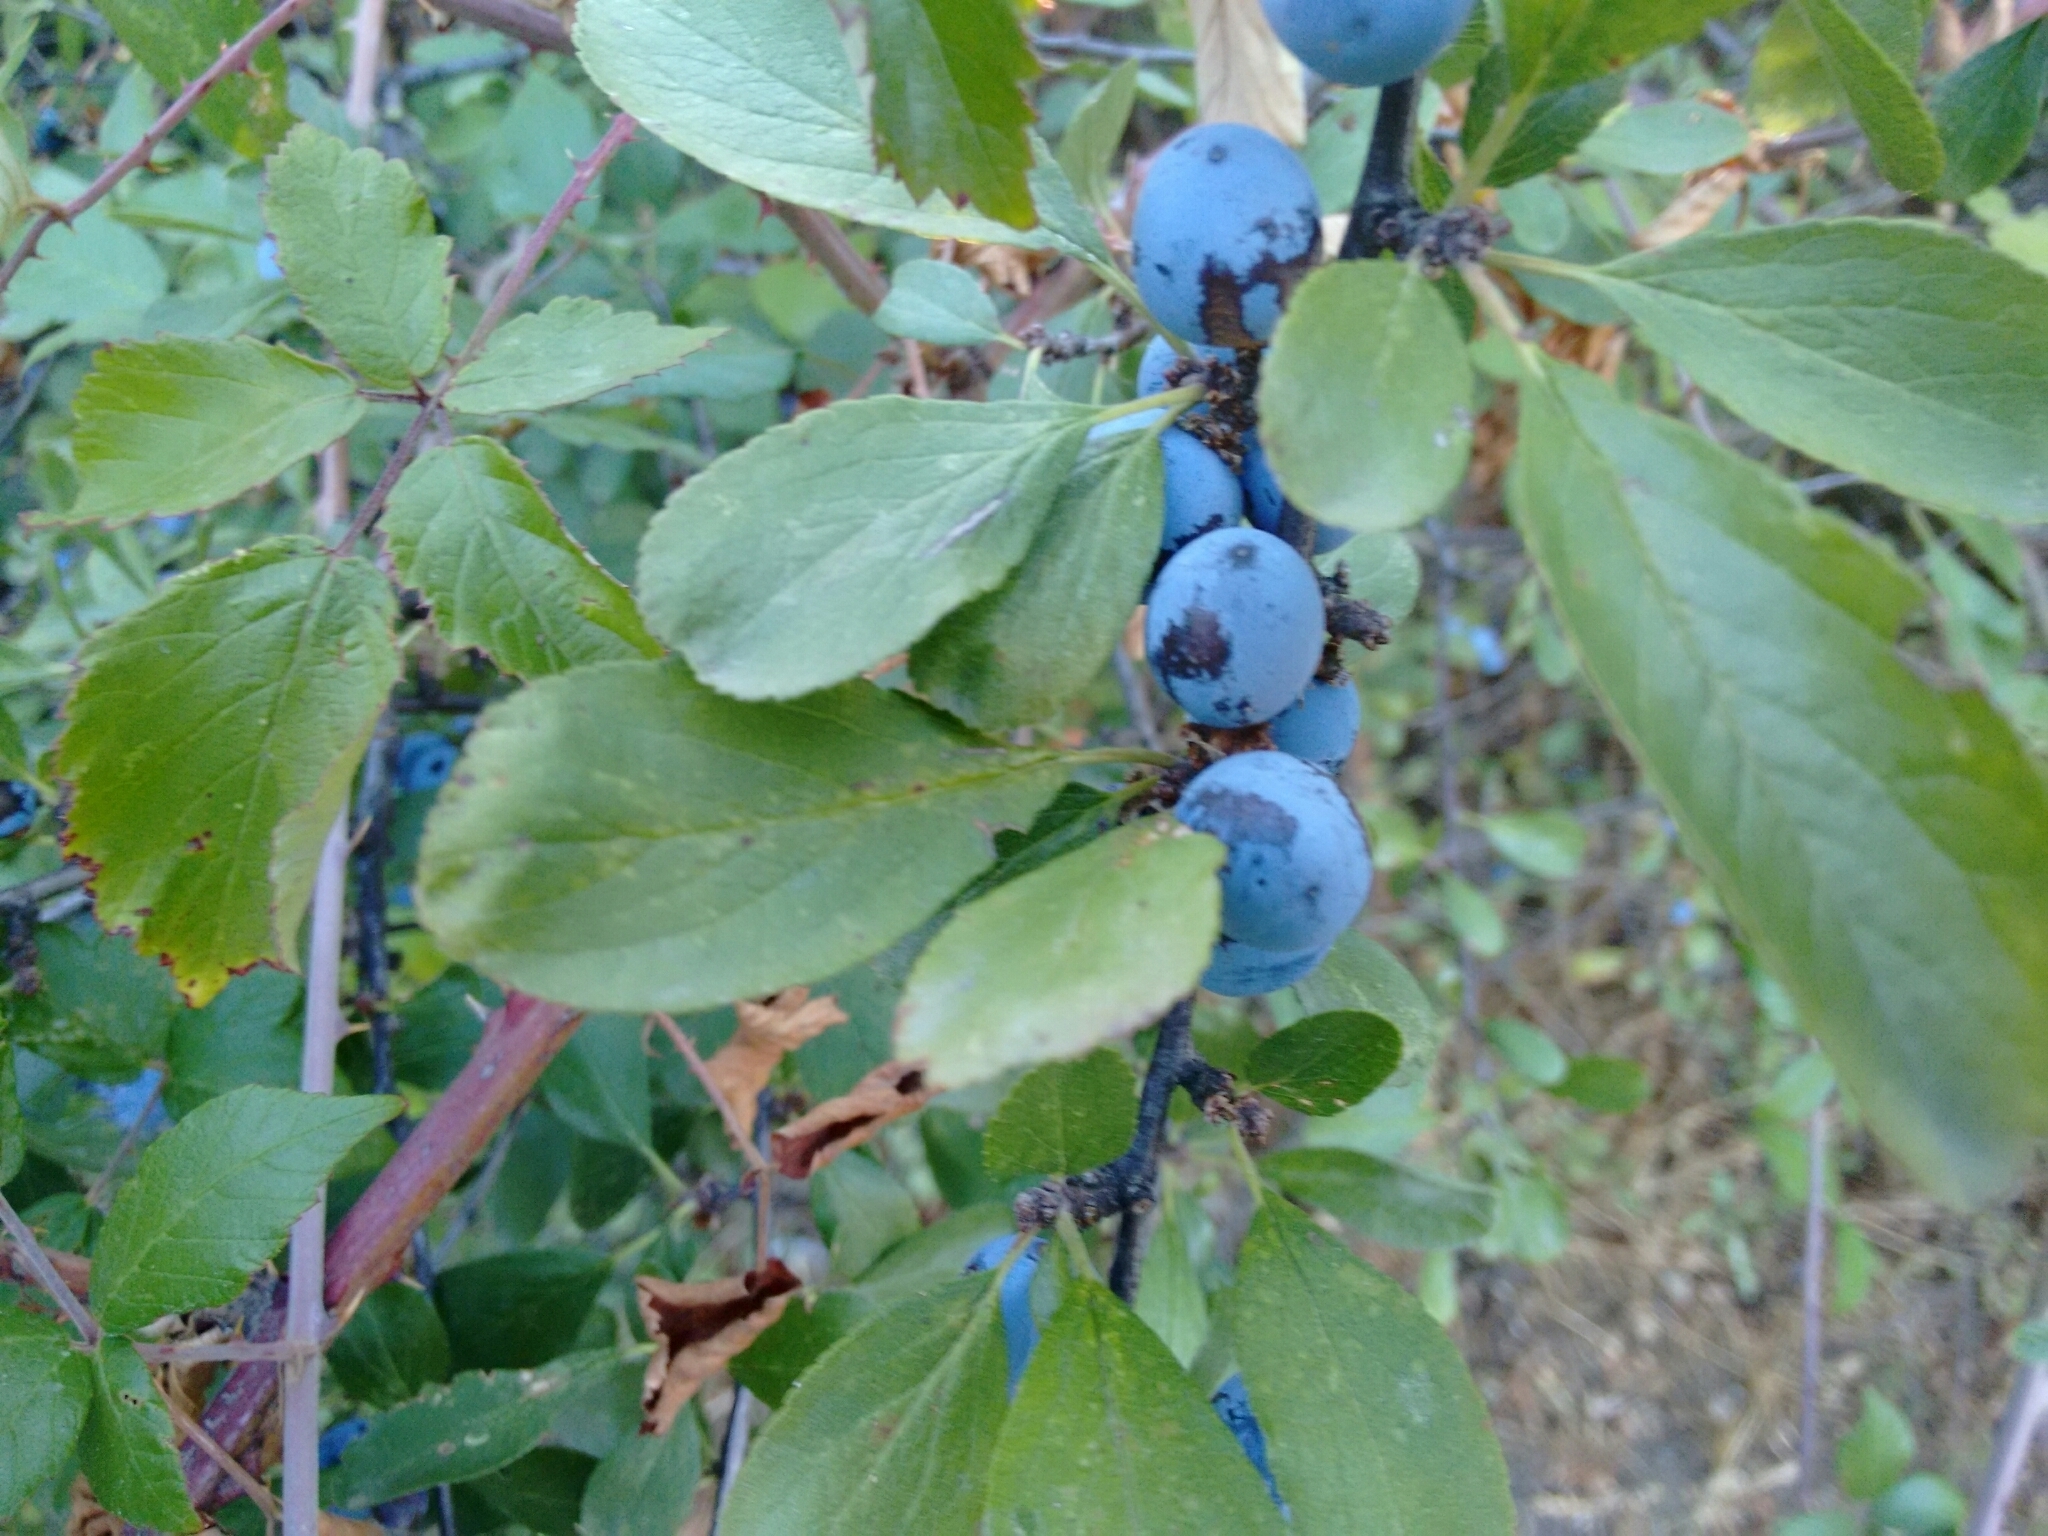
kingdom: Plantae
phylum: Tracheophyta
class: Magnoliopsida
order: Rosales
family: Rosaceae
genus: Prunus
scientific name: Prunus spinosa
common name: Blackthorn
